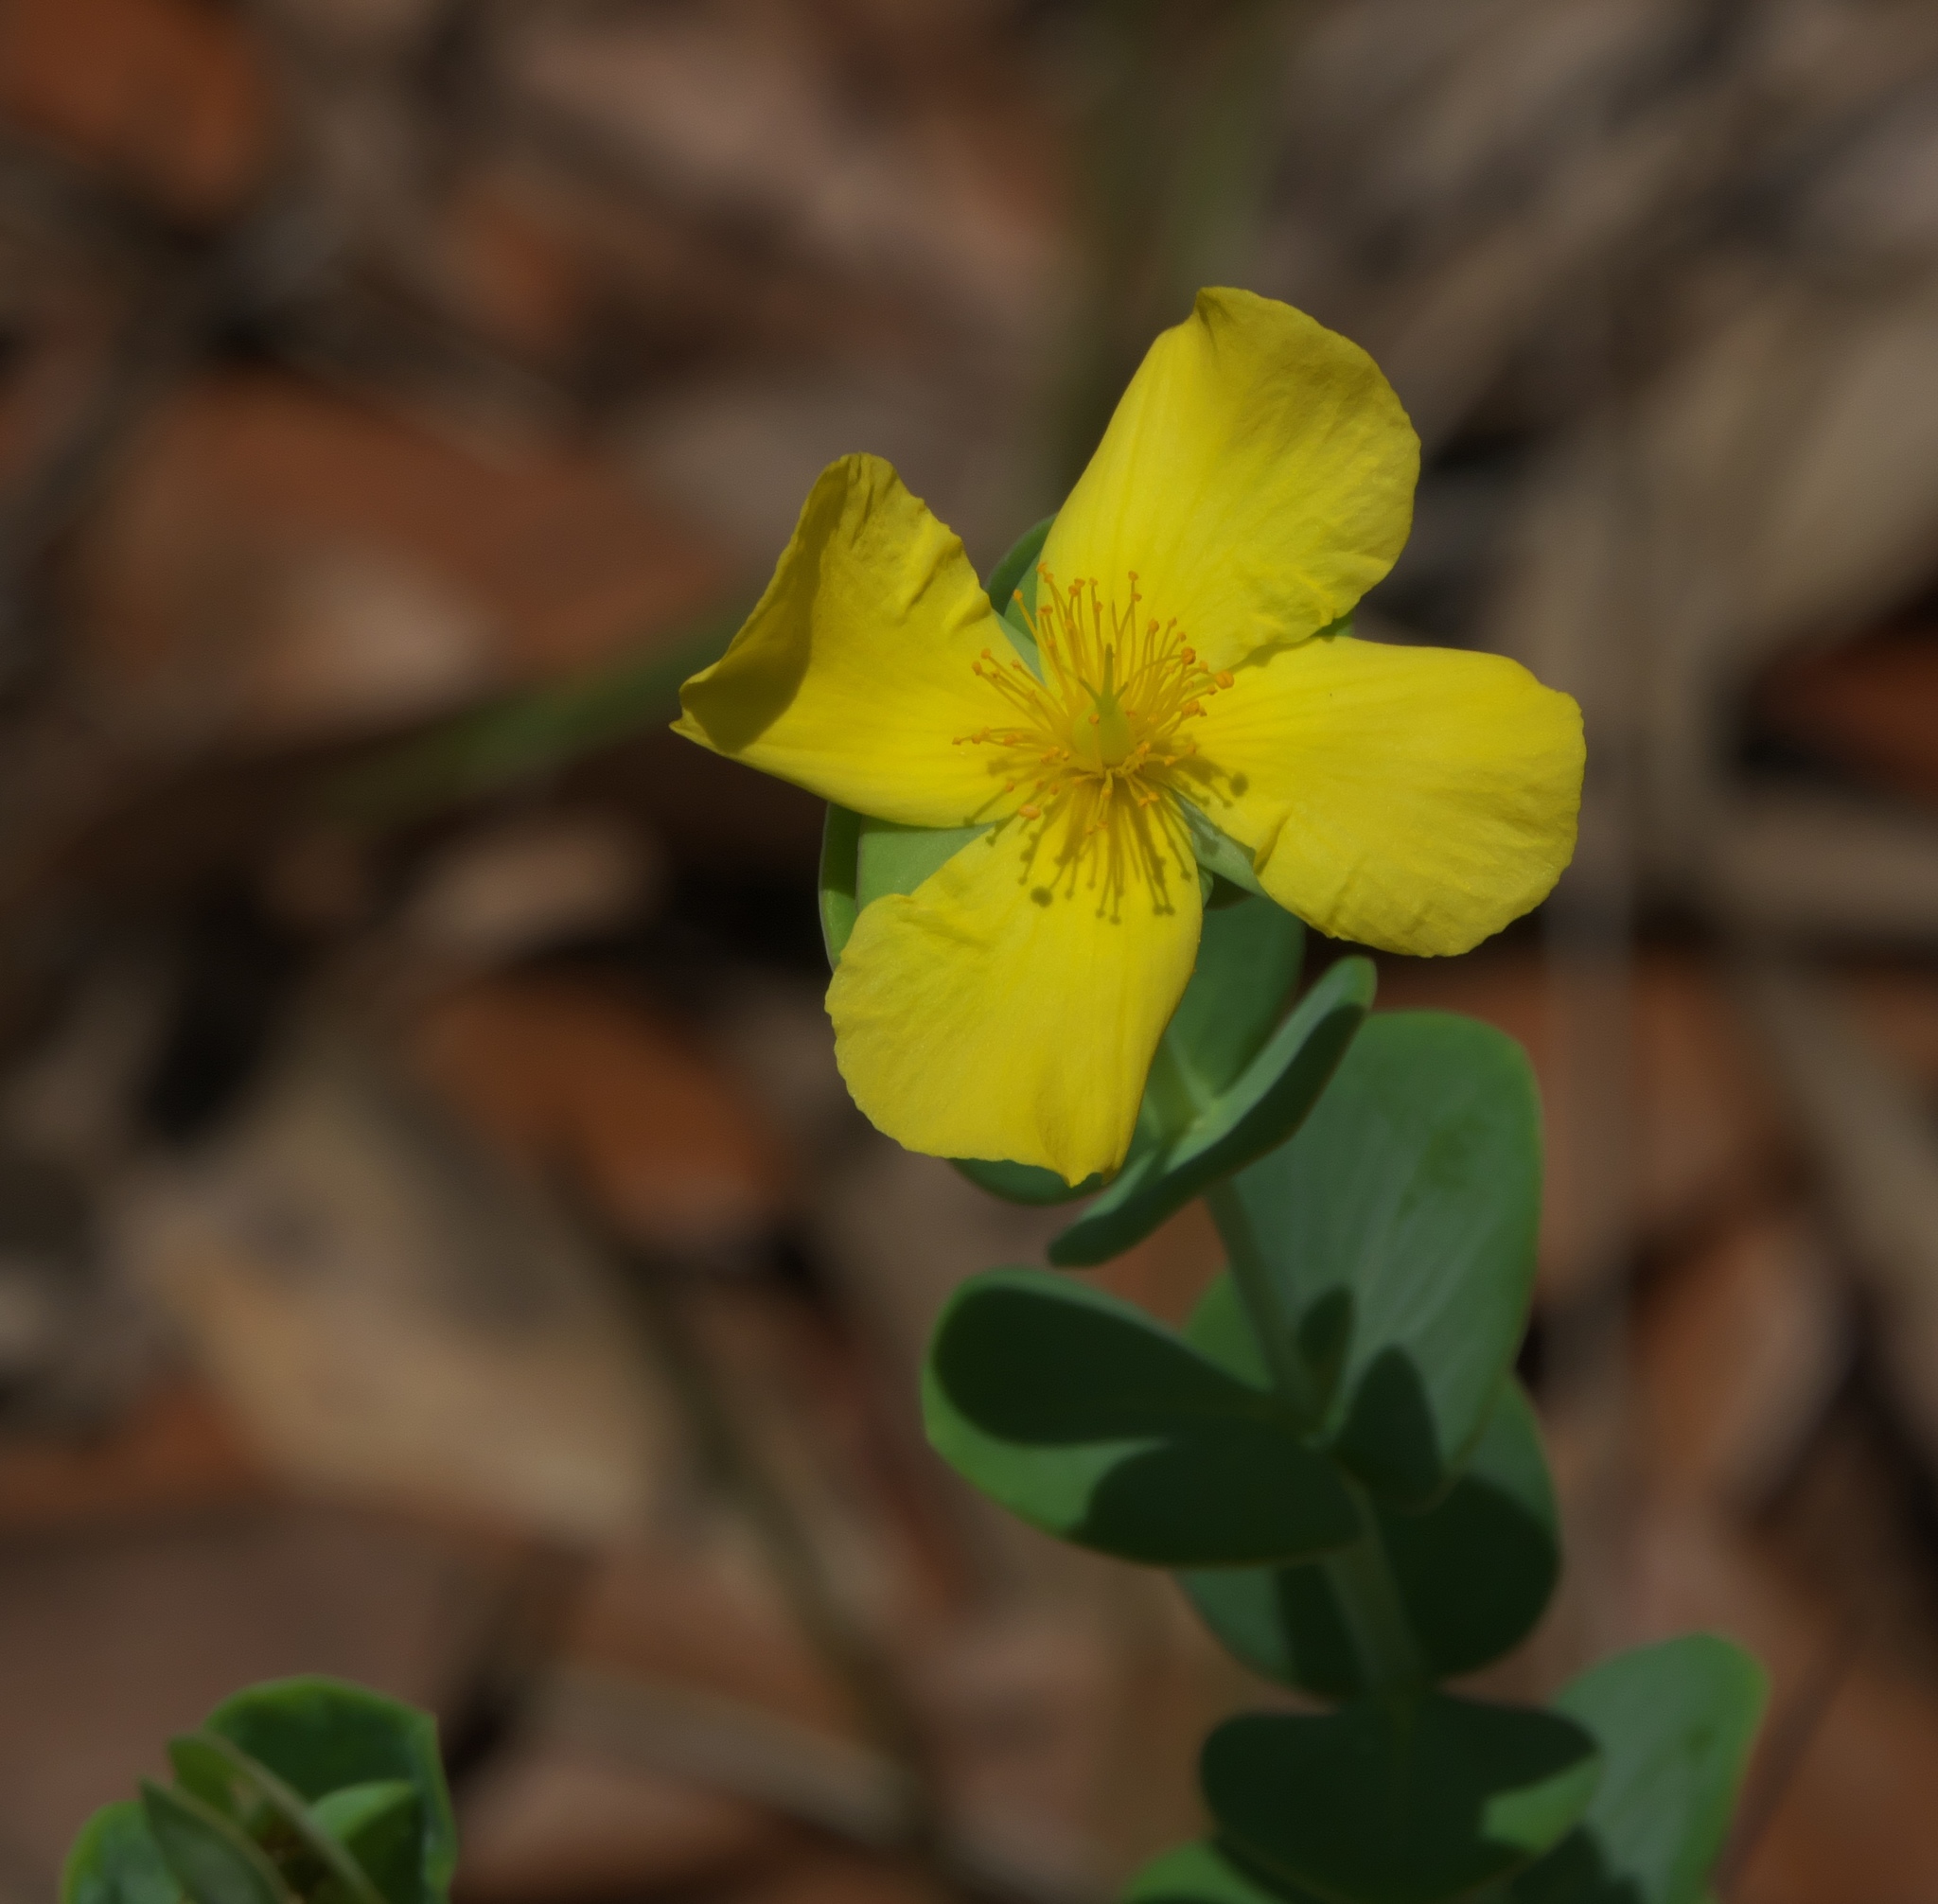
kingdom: Plantae
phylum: Tracheophyta
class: Magnoliopsida
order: Malpighiales
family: Hypericaceae
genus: Hypericum
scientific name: Hypericum tetrapetalum
